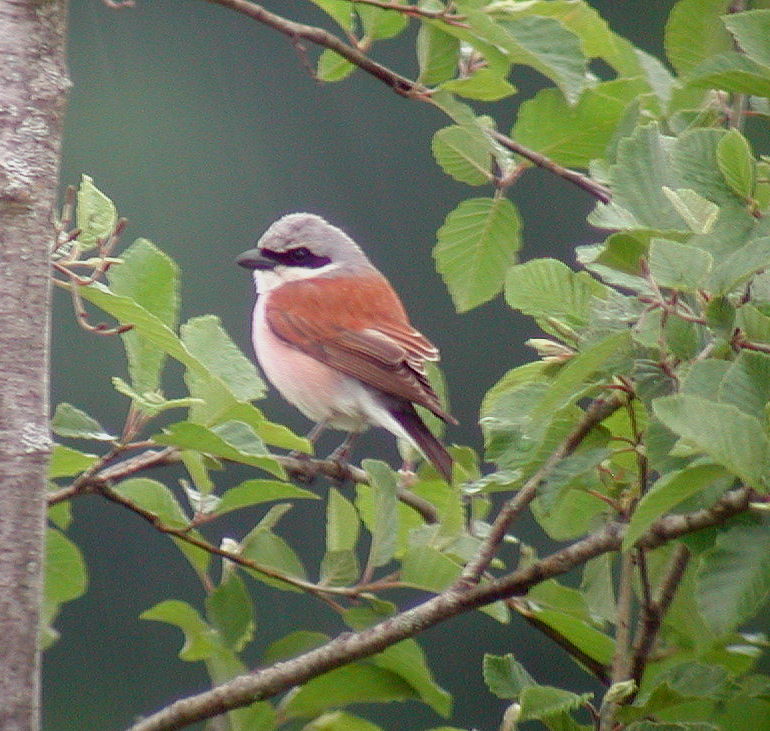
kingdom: Animalia
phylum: Chordata
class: Aves
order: Passeriformes
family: Laniidae
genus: Lanius
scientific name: Lanius collurio
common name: Red-backed shrike
